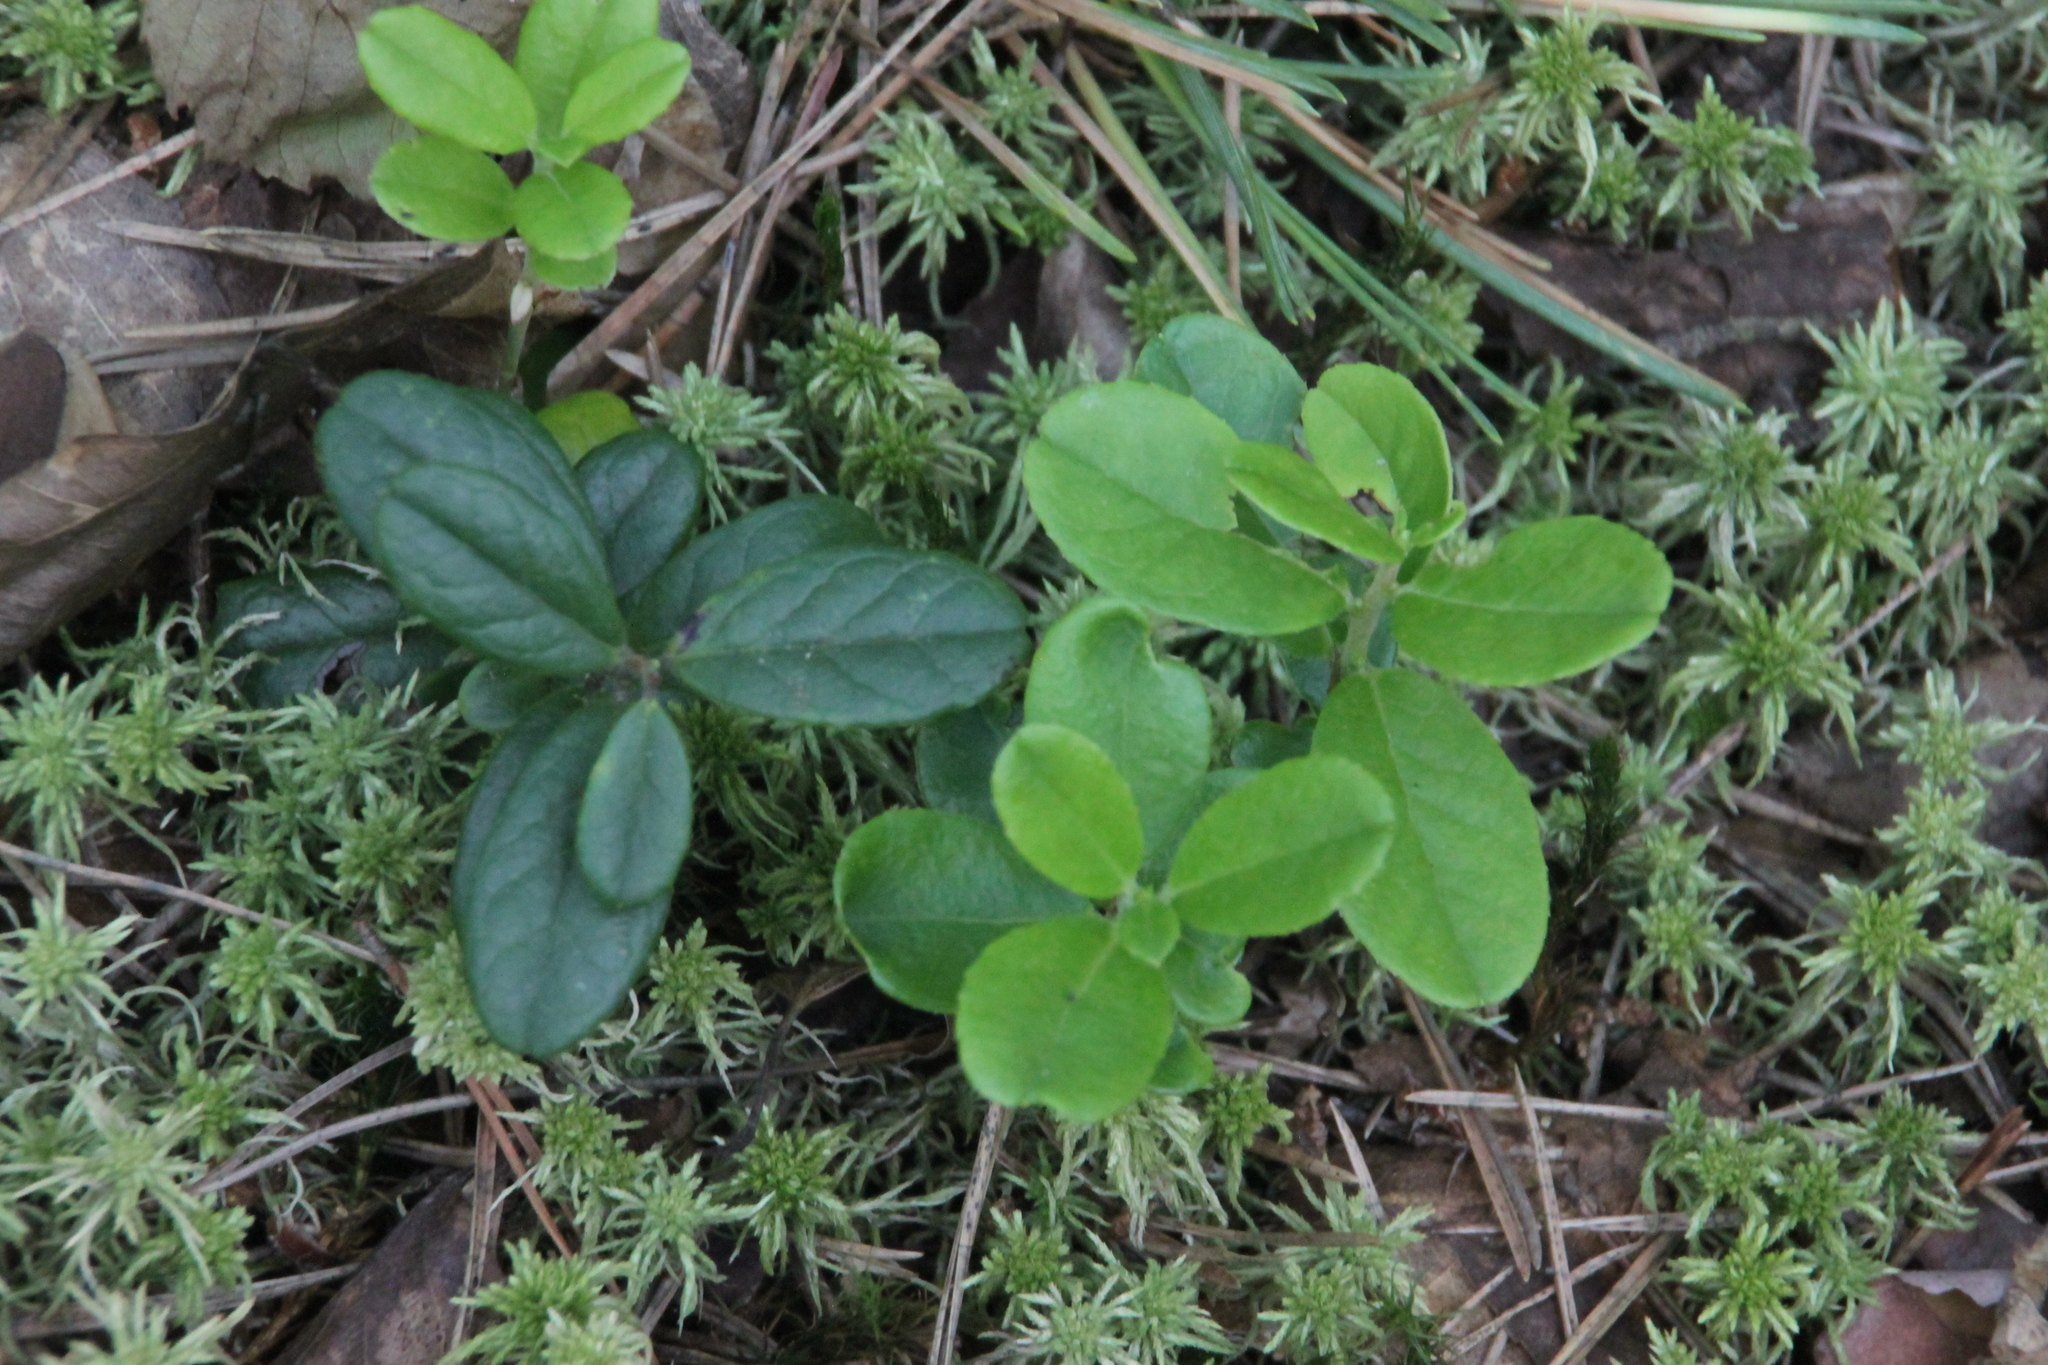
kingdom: Plantae
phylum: Tracheophyta
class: Magnoliopsida
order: Ericales
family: Ericaceae
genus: Vaccinium
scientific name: Vaccinium vitis-idaea
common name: Cowberry
